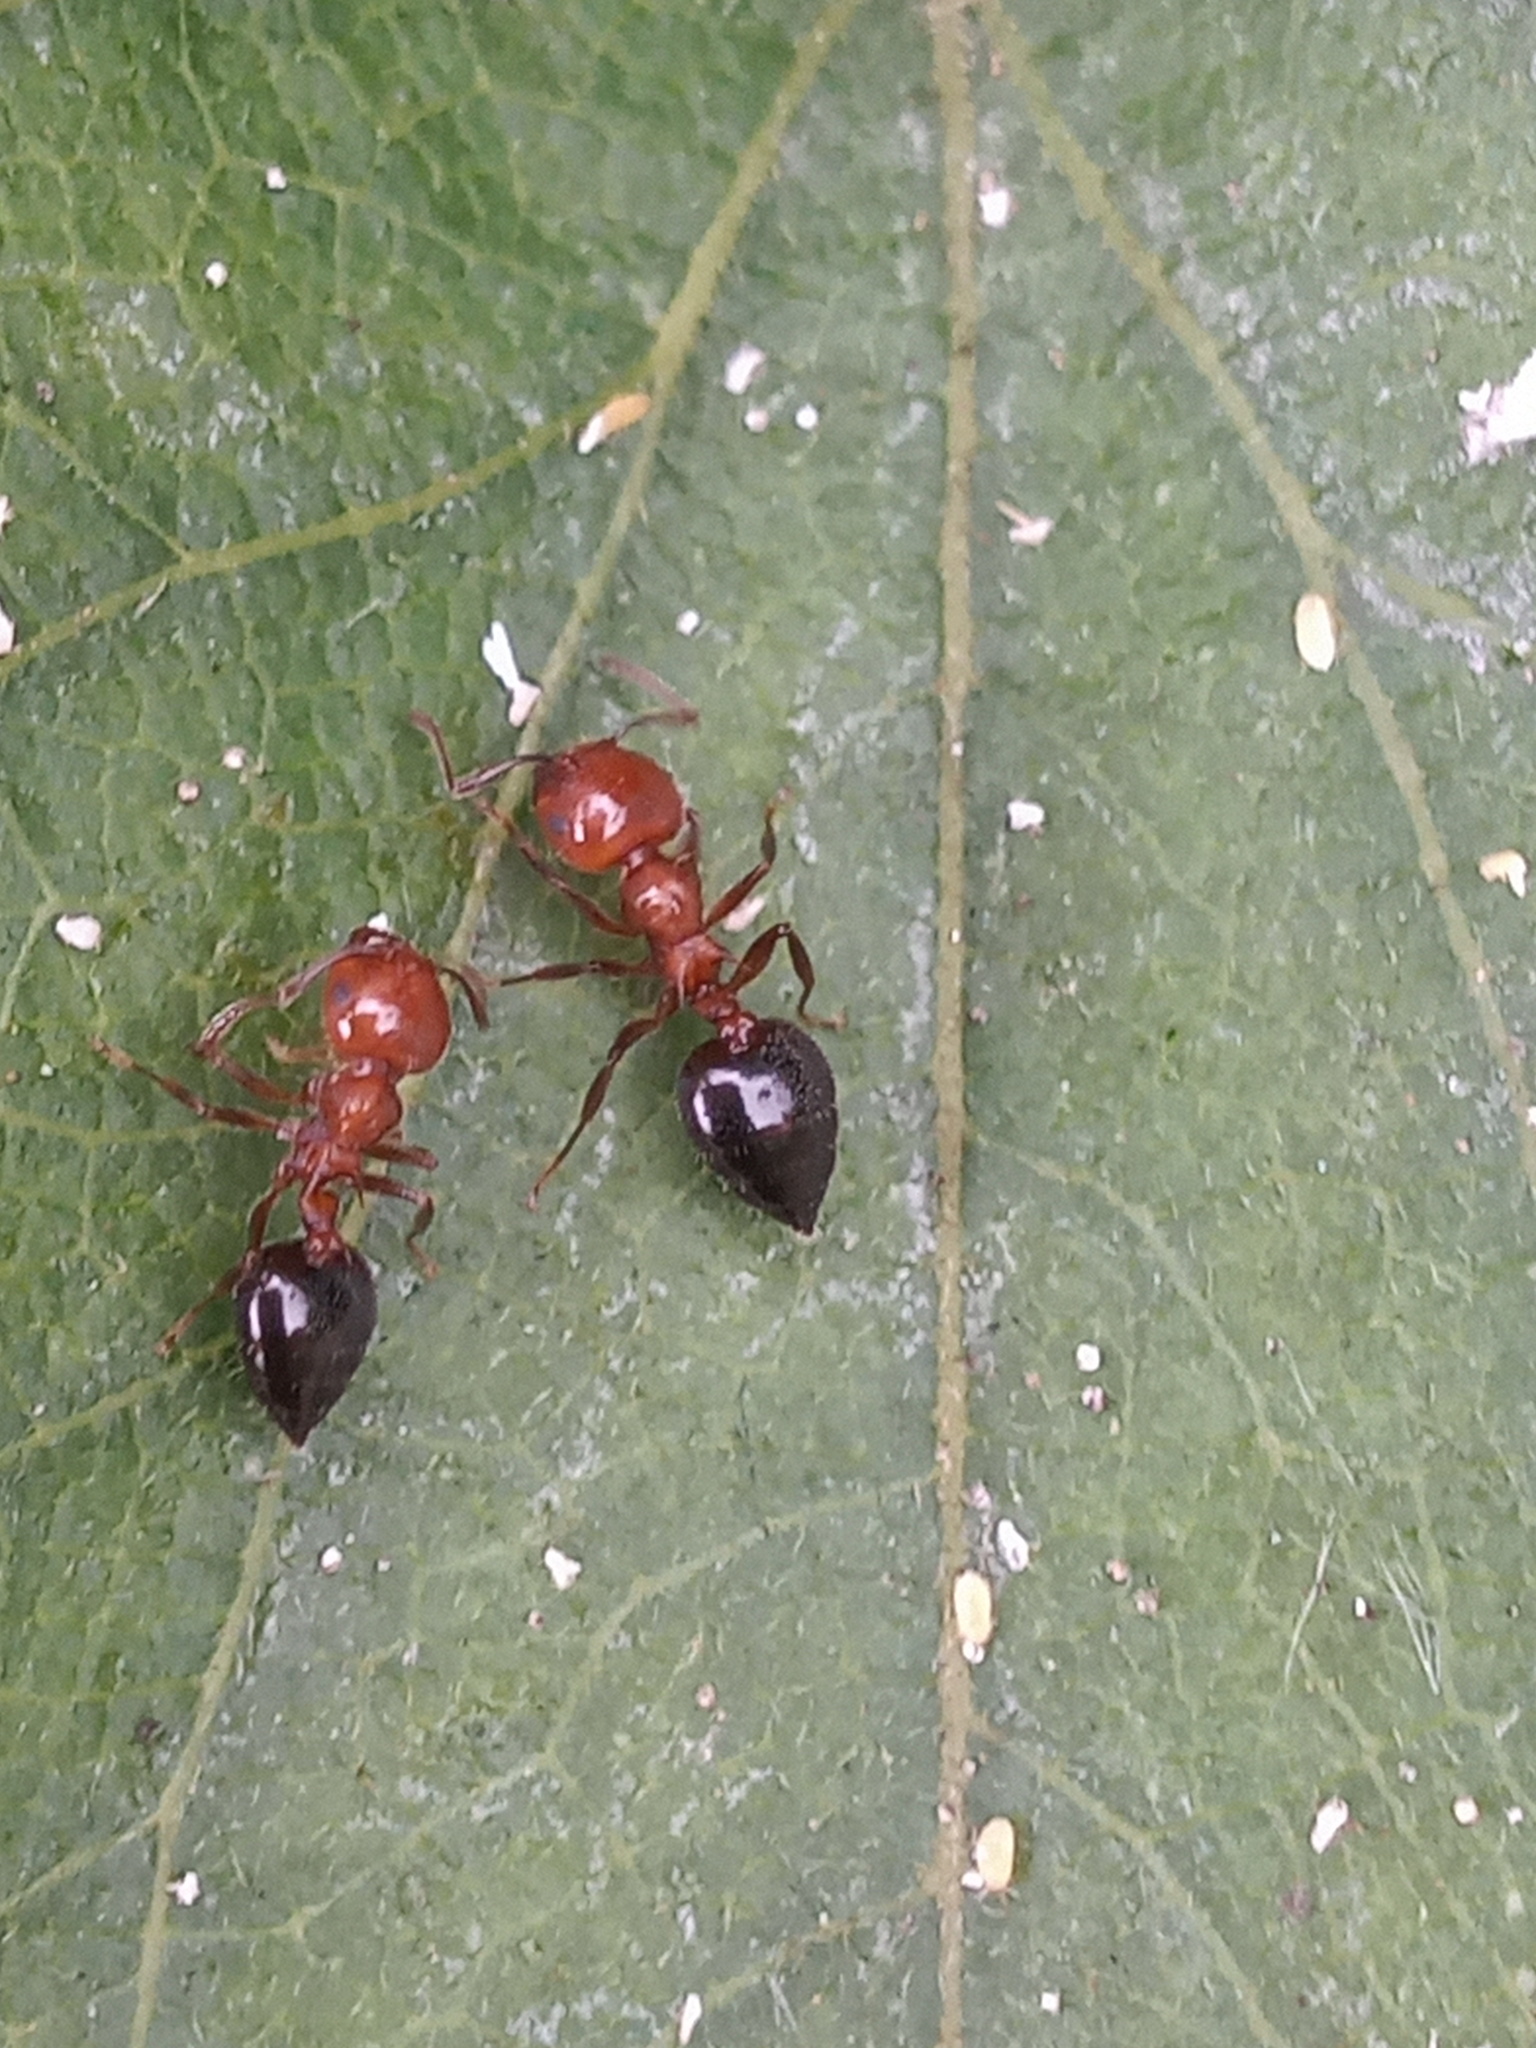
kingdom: Animalia
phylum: Arthropoda
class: Insecta
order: Hymenoptera
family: Formicidae
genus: Crematogaster
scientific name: Crematogaster laeviuscula
